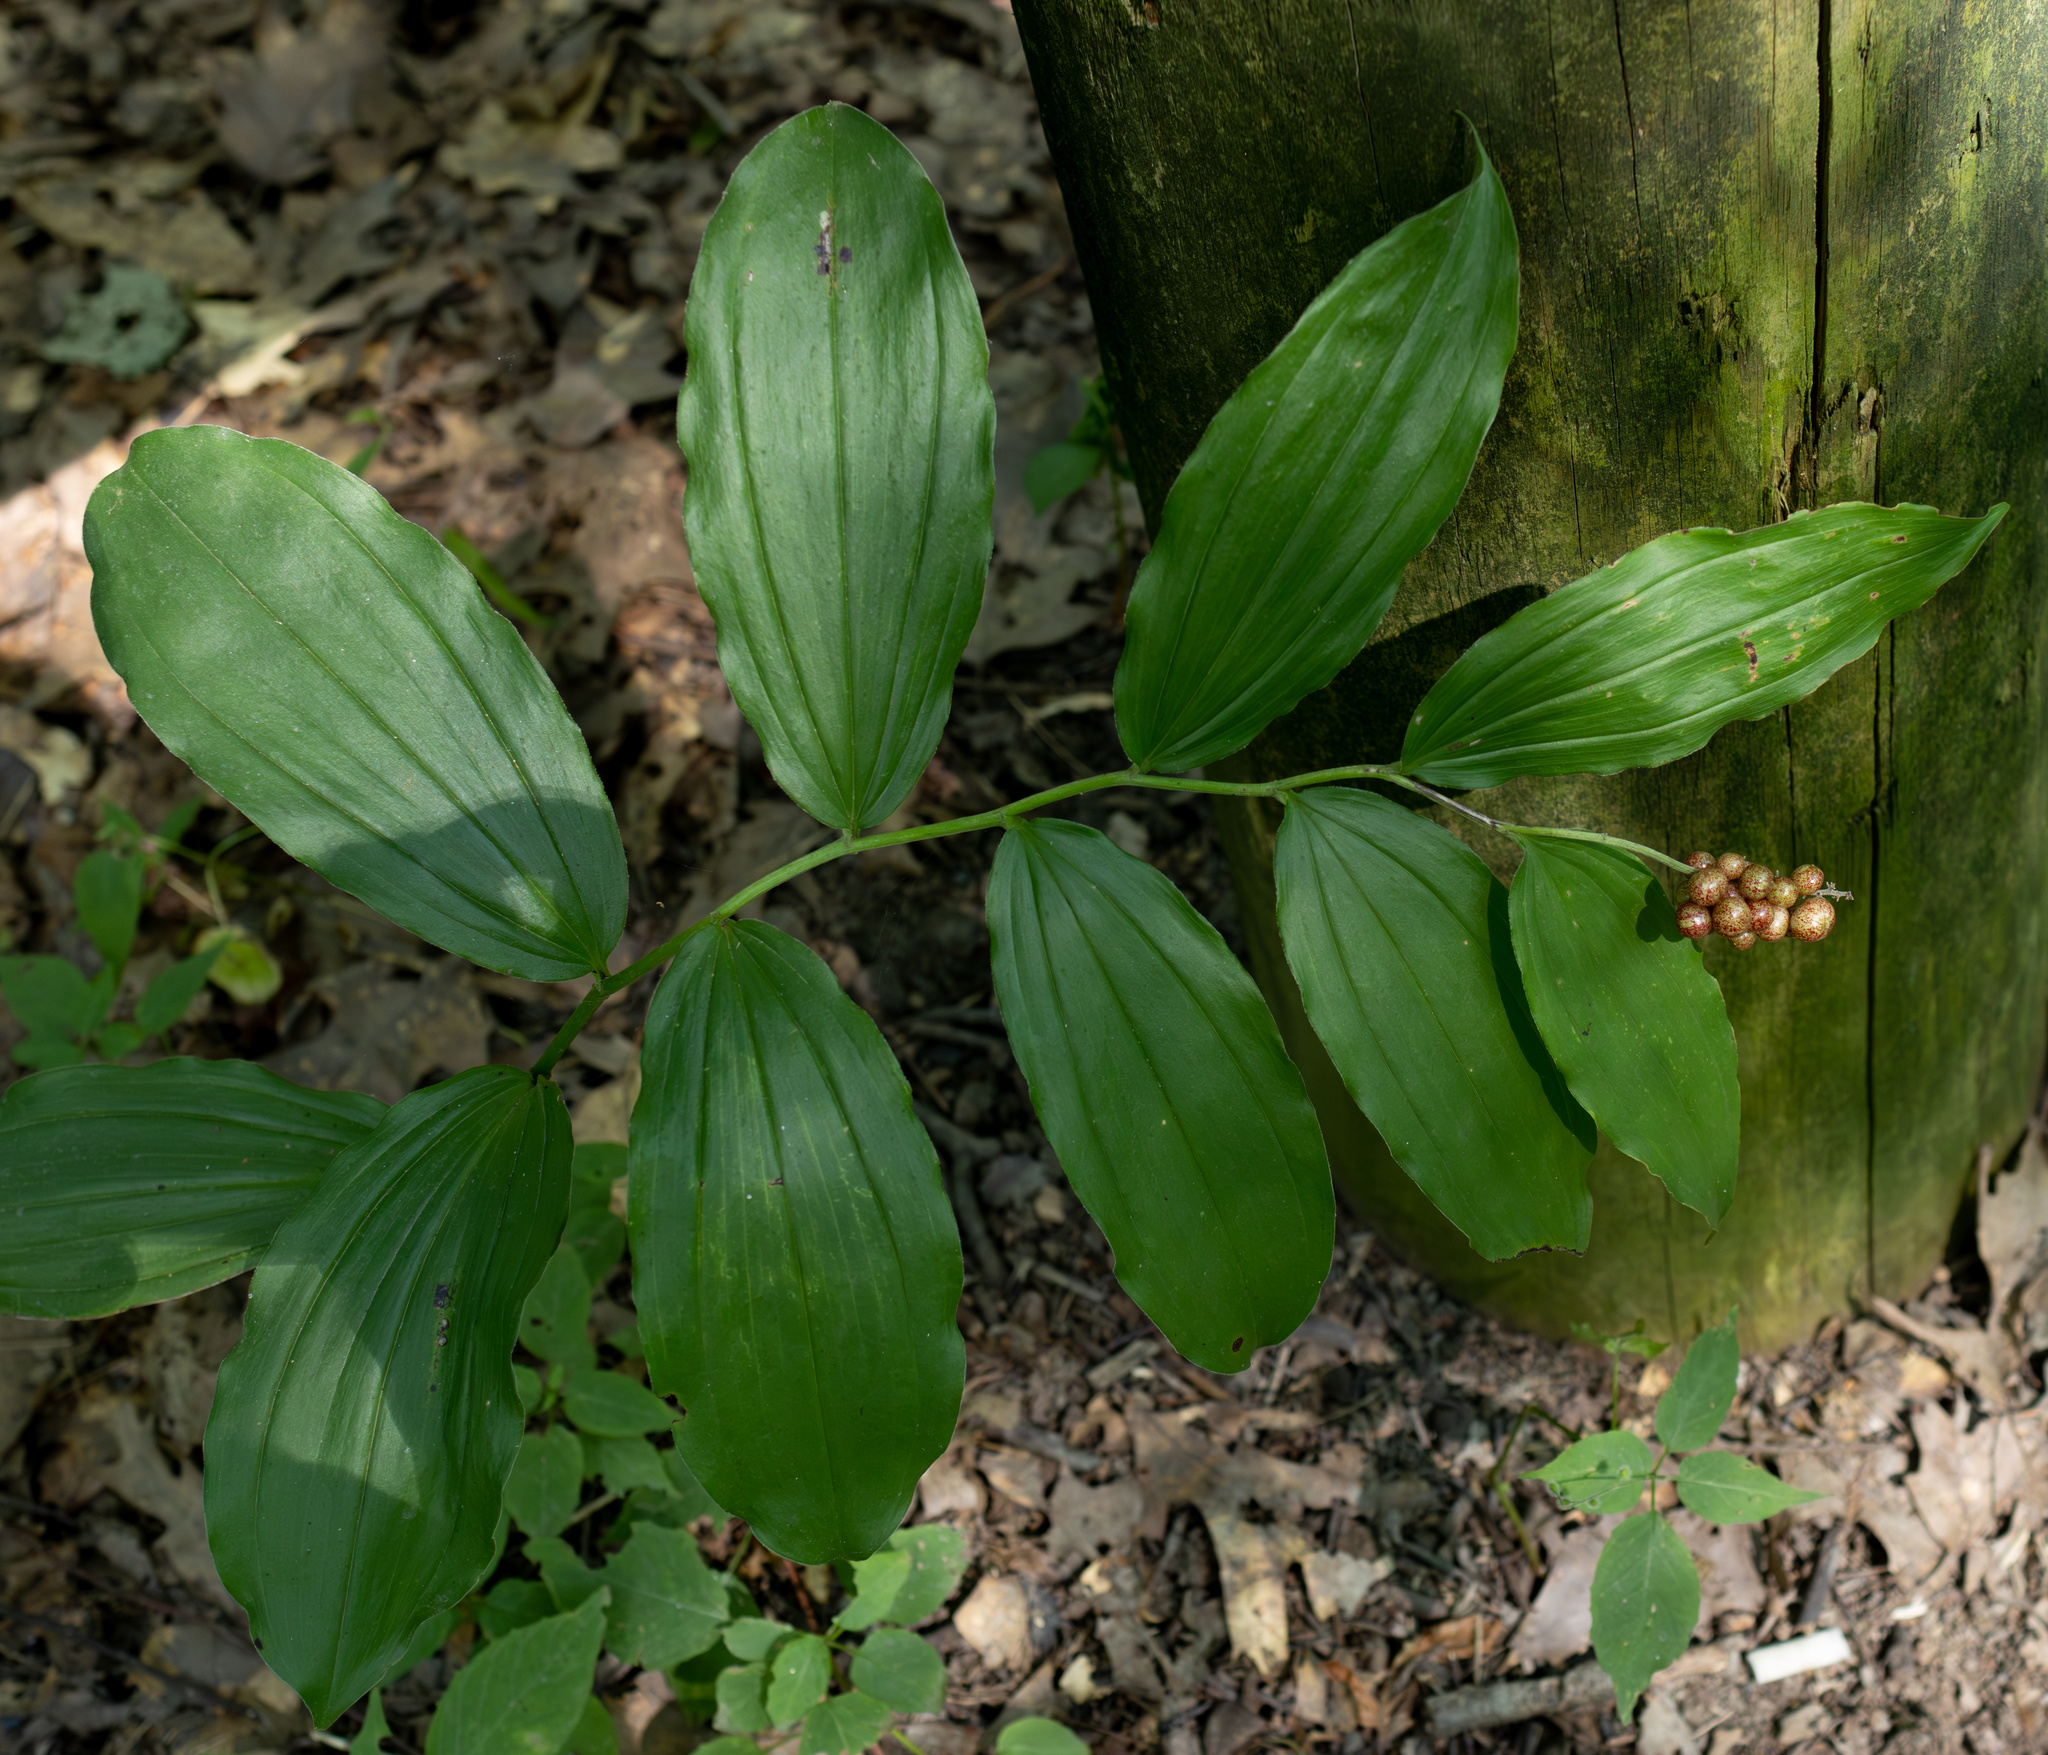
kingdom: Plantae
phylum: Tracheophyta
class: Liliopsida
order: Asparagales
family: Asparagaceae
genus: Maianthemum
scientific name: Maianthemum racemosum
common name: False spikenard
